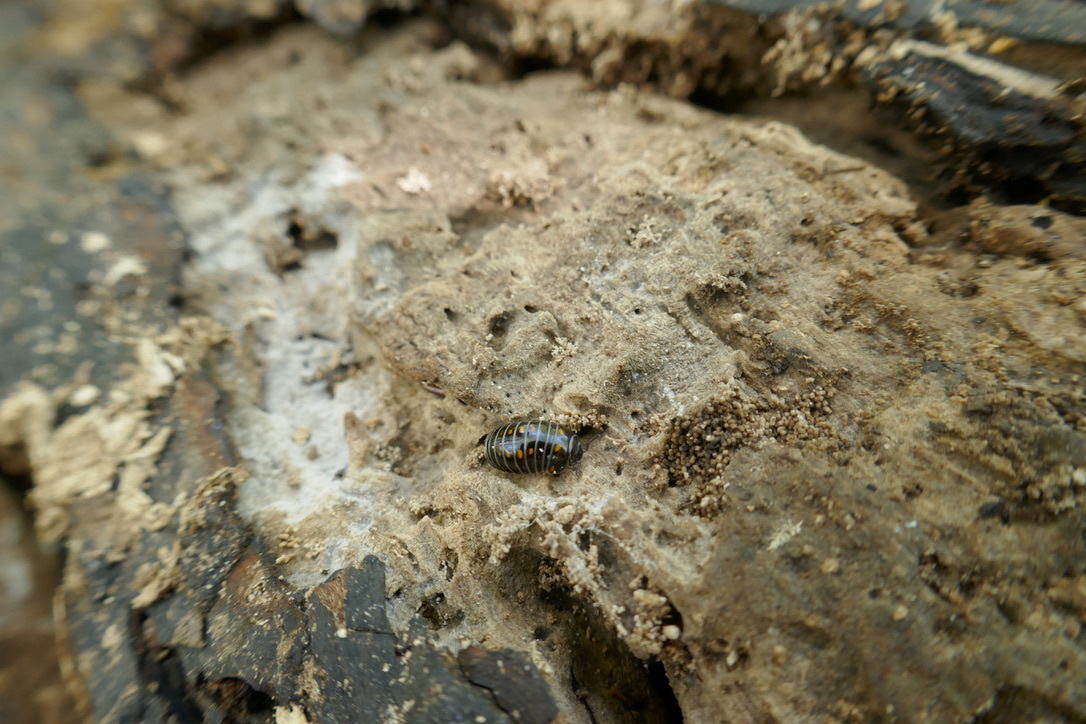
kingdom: Animalia
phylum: Arthropoda
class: Diplopoda
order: Glomerida
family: Glomeridae
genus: Glomeris
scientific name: Glomeris pustulata
